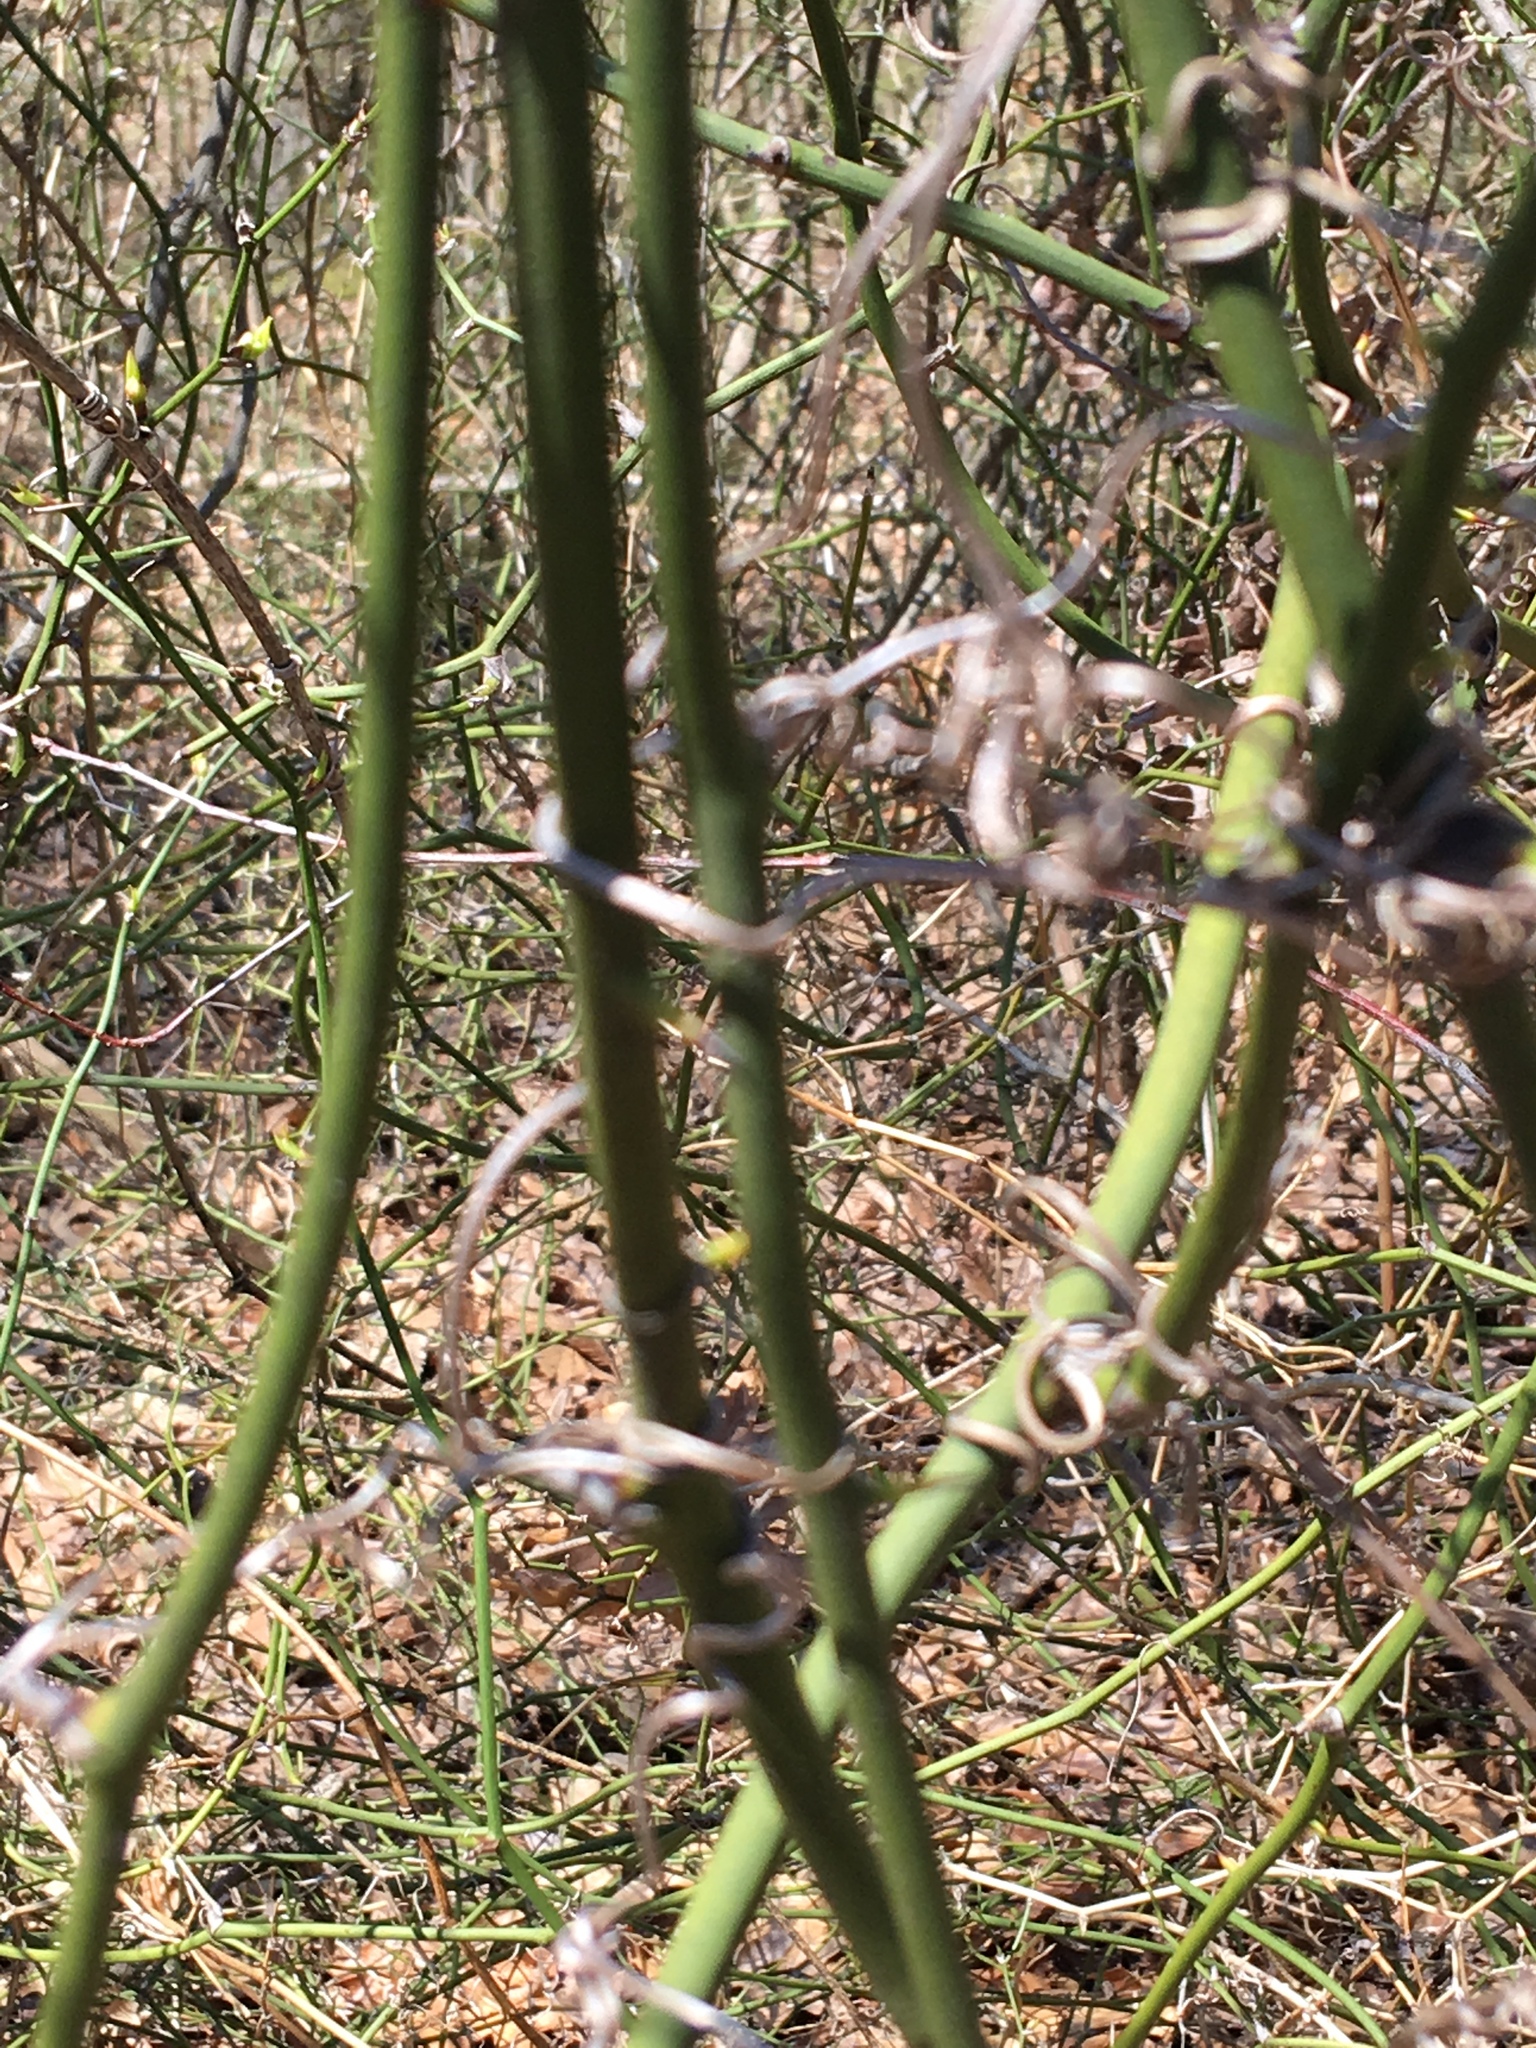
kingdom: Plantae
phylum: Tracheophyta
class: Liliopsida
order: Liliales
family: Smilacaceae
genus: Smilax
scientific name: Smilax rotundifolia
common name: Bullbriar
